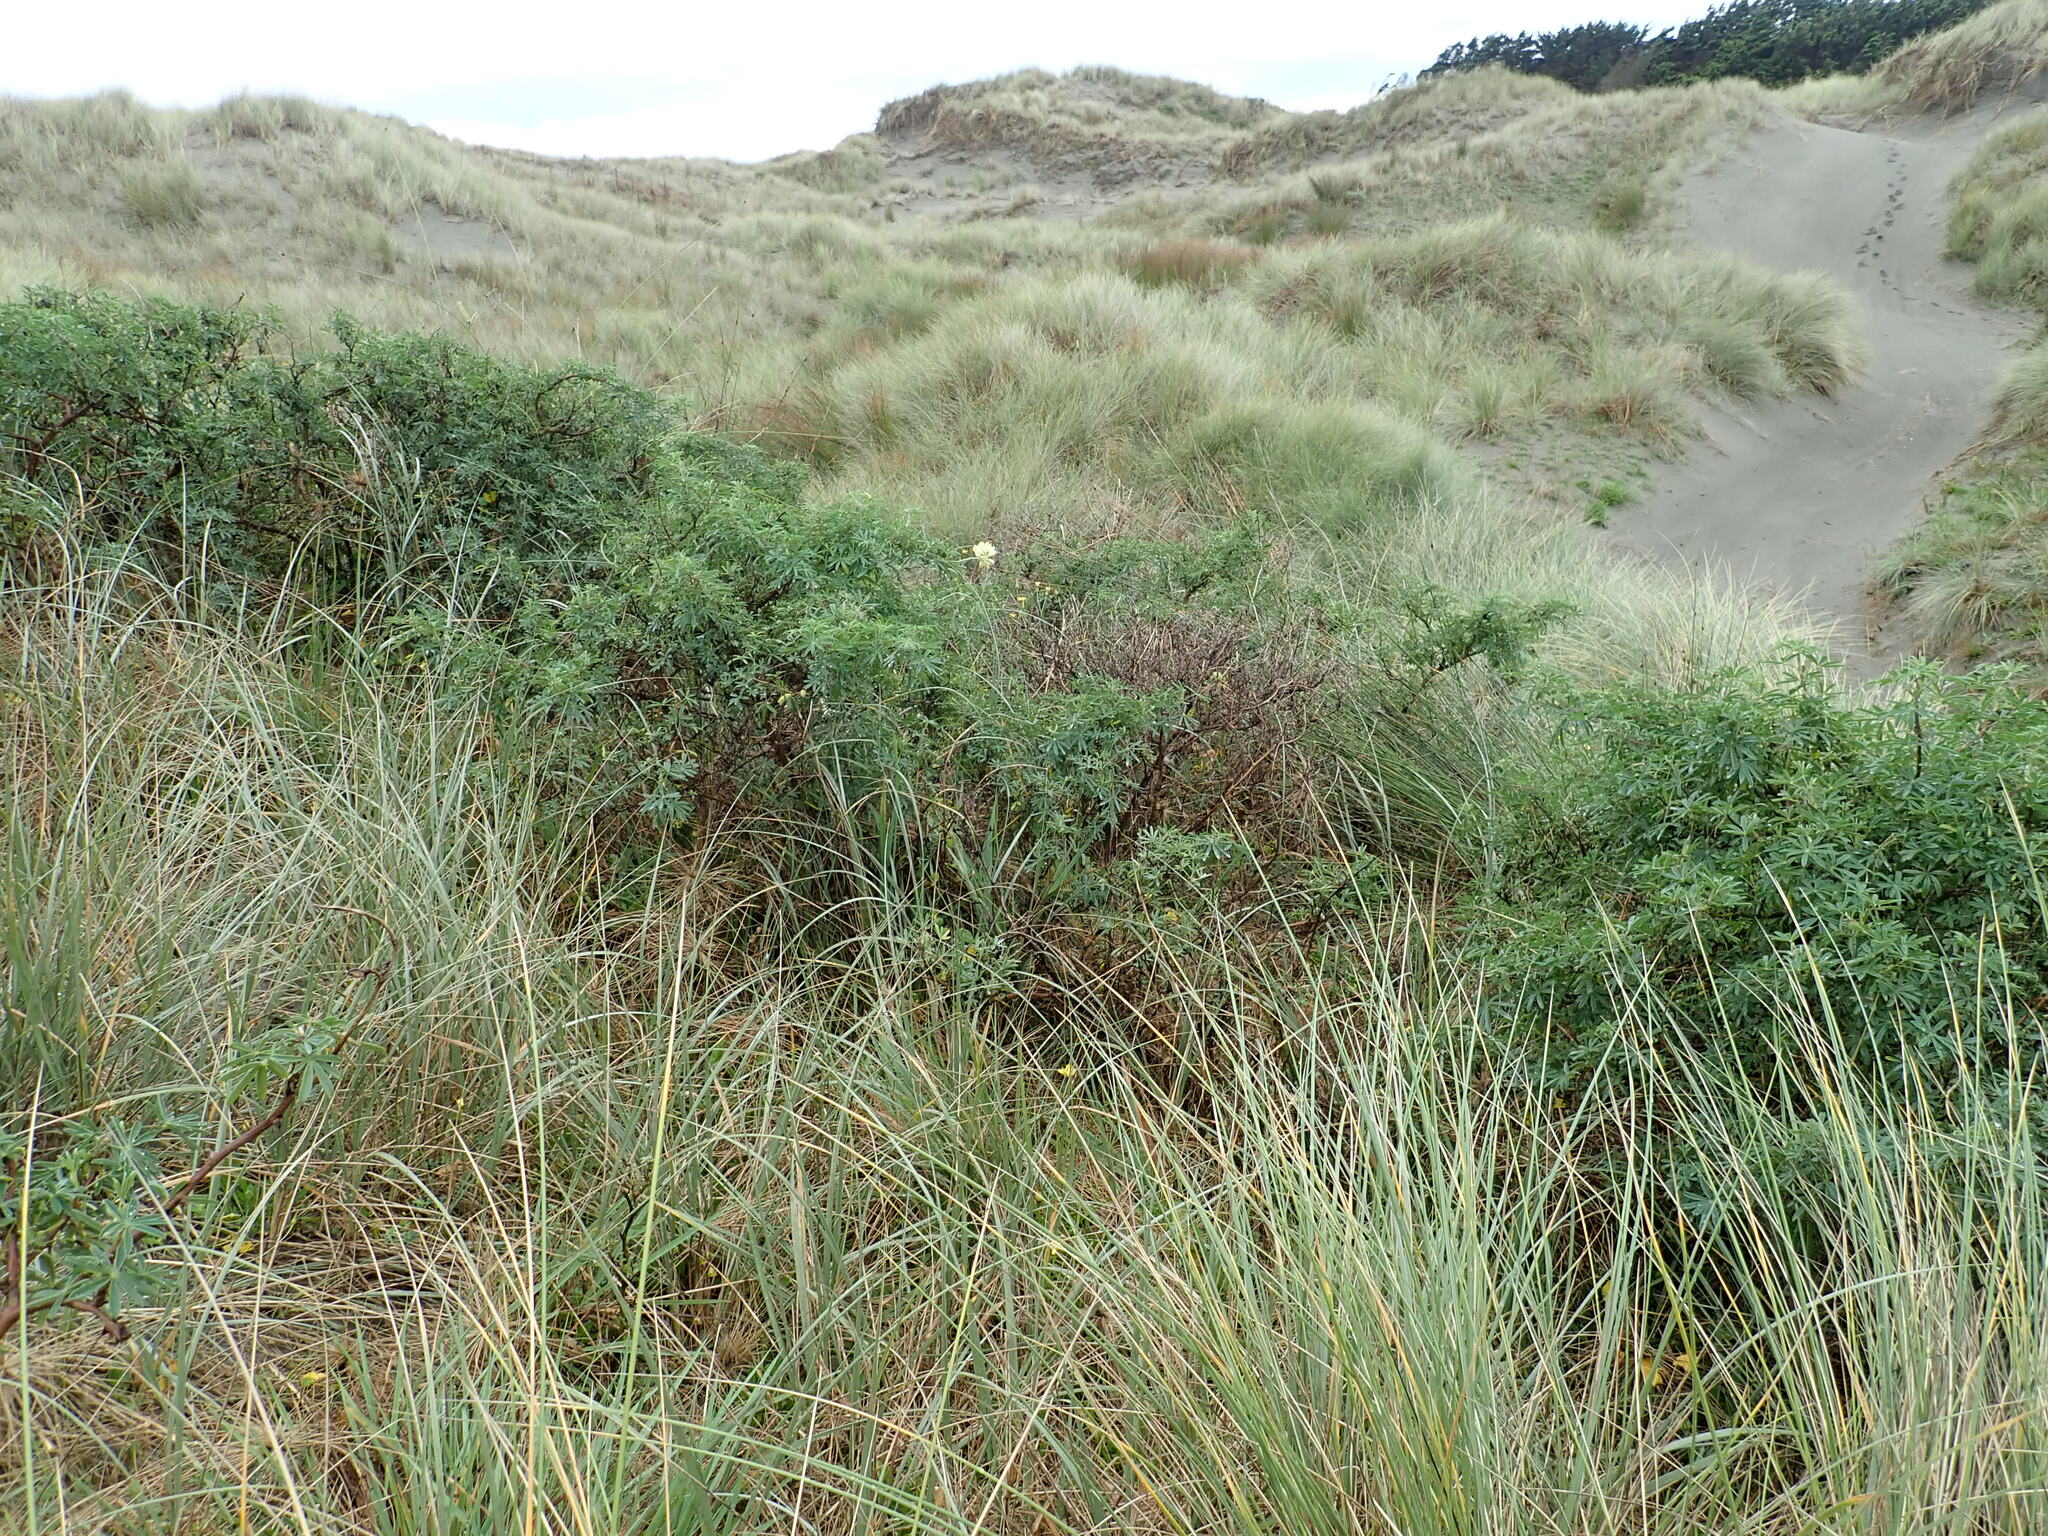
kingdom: Plantae
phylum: Tracheophyta
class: Magnoliopsida
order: Fabales
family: Fabaceae
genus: Lupinus
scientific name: Lupinus arboreus
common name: Yellow bush lupine
